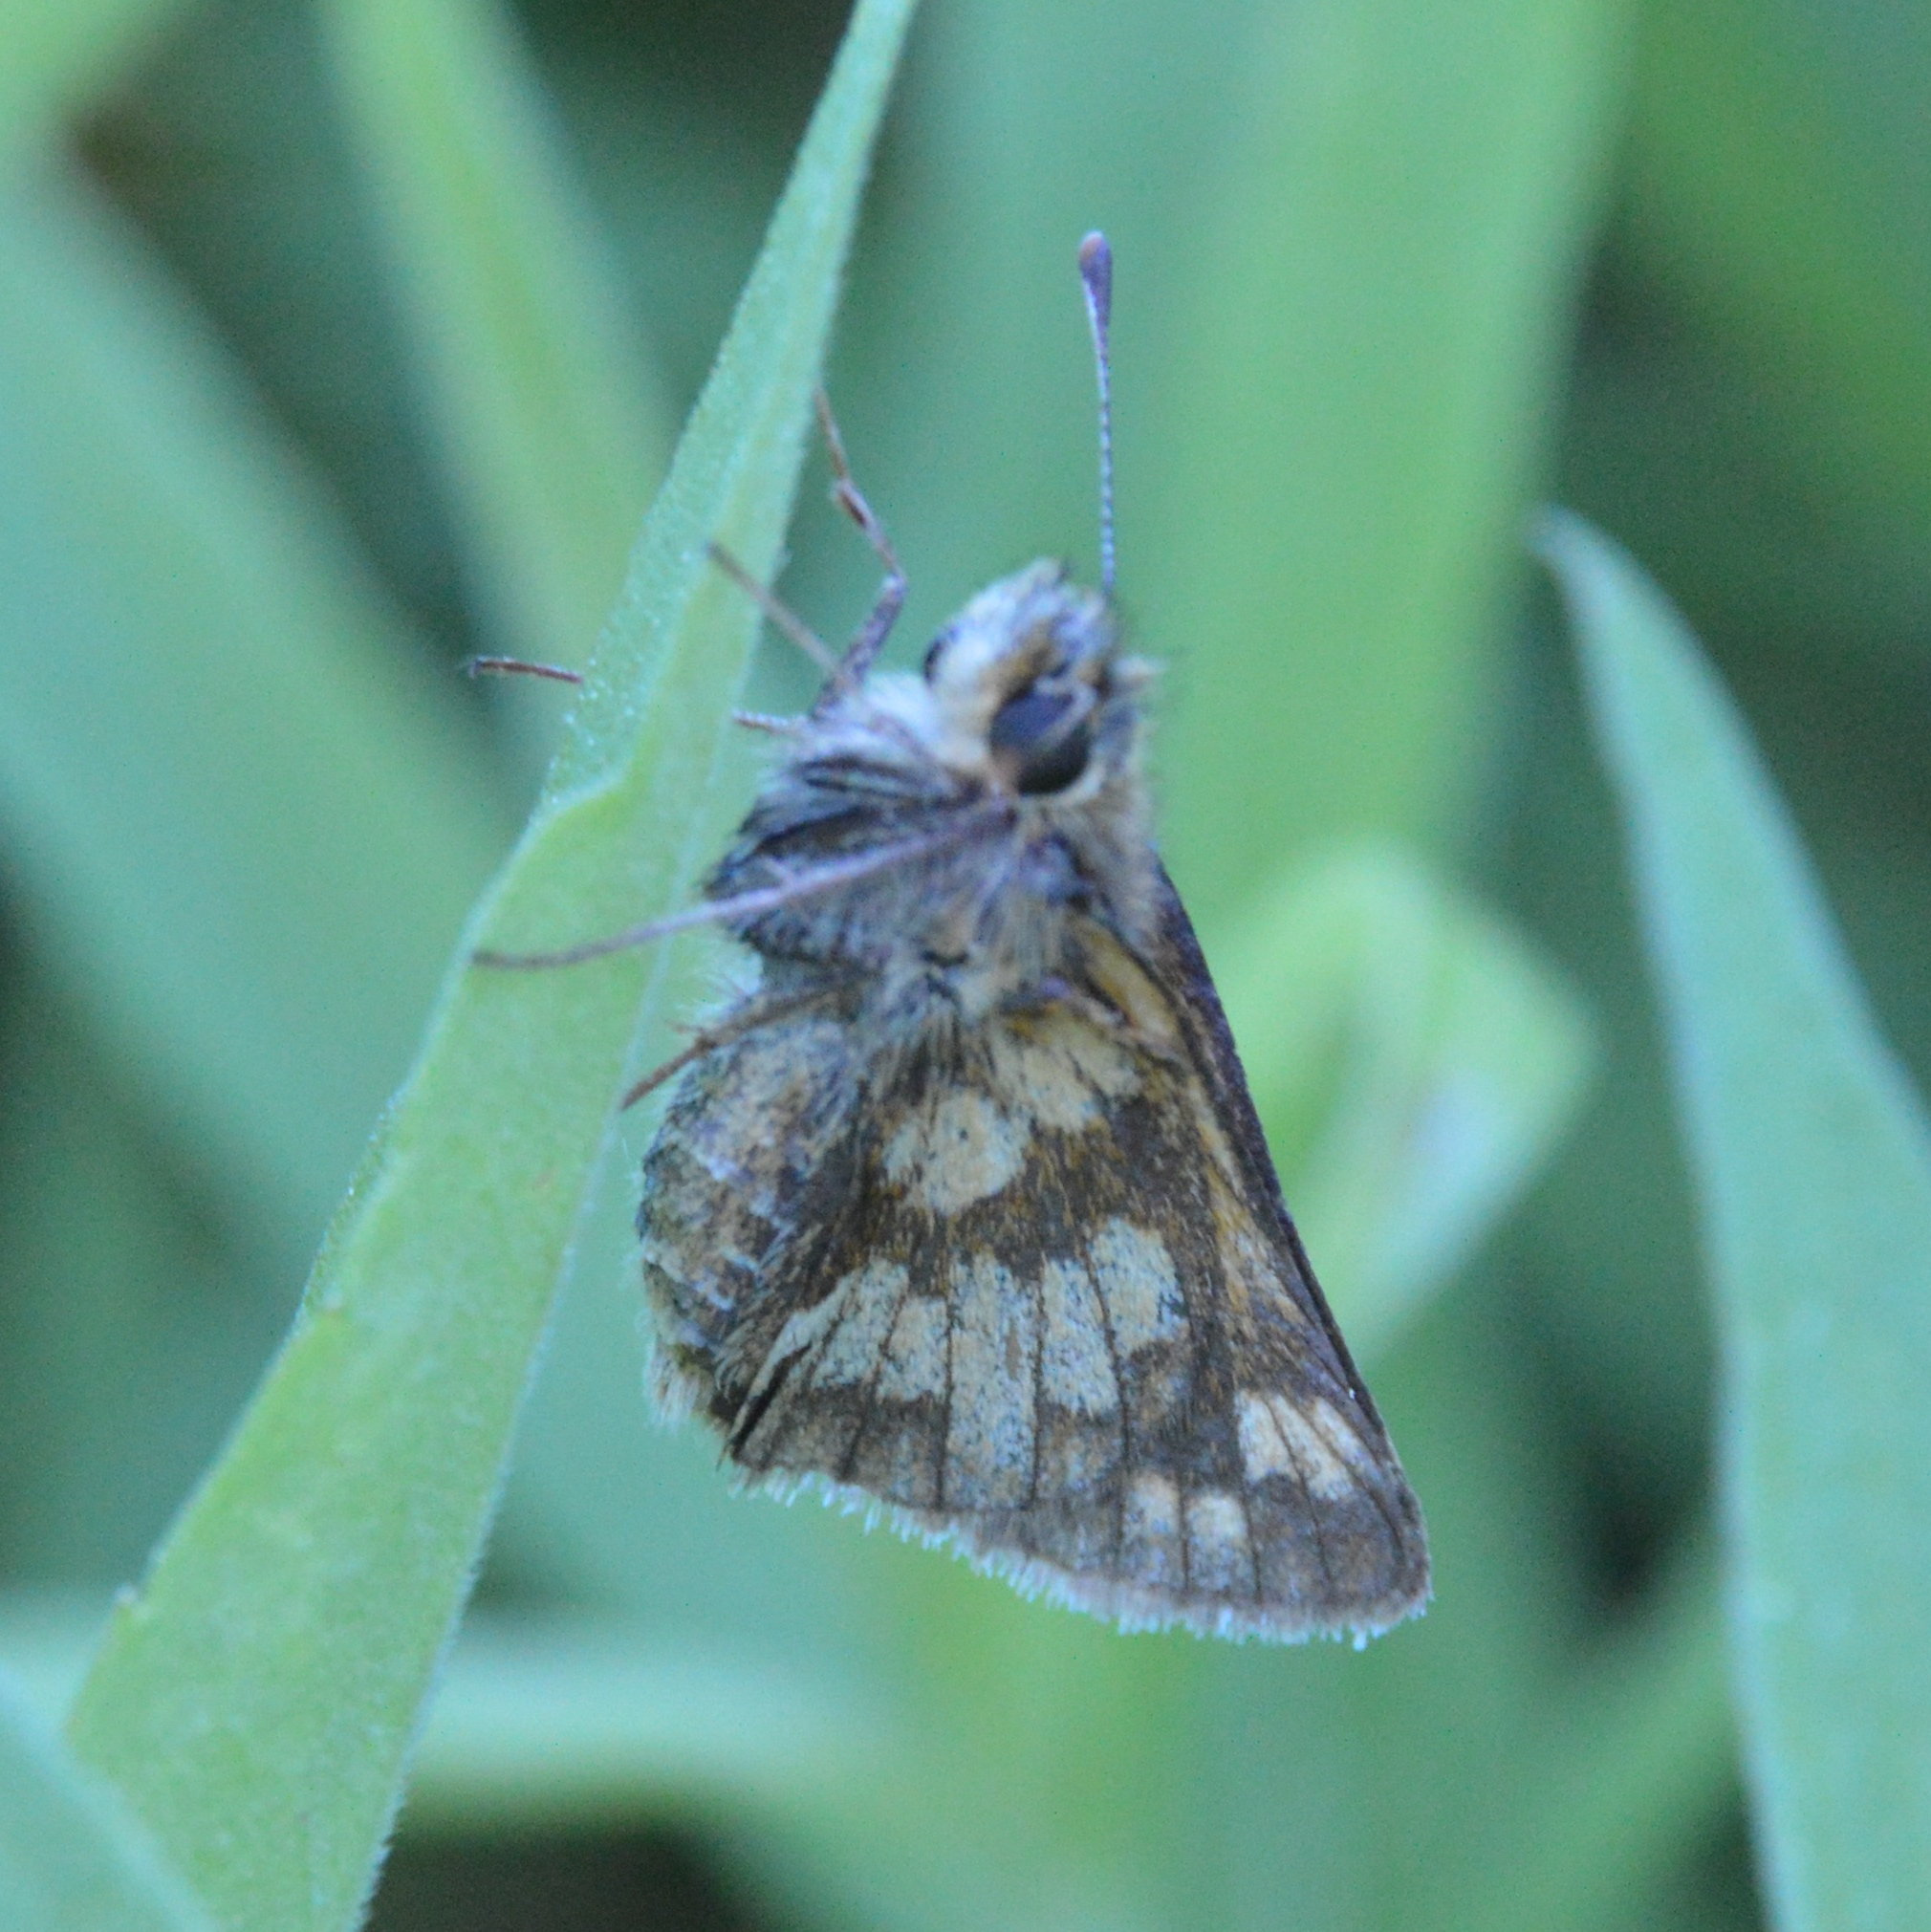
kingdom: Animalia
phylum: Arthropoda
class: Insecta
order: Lepidoptera
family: Hesperiidae
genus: Polites
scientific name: Polites coras
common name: Peck's skipper
